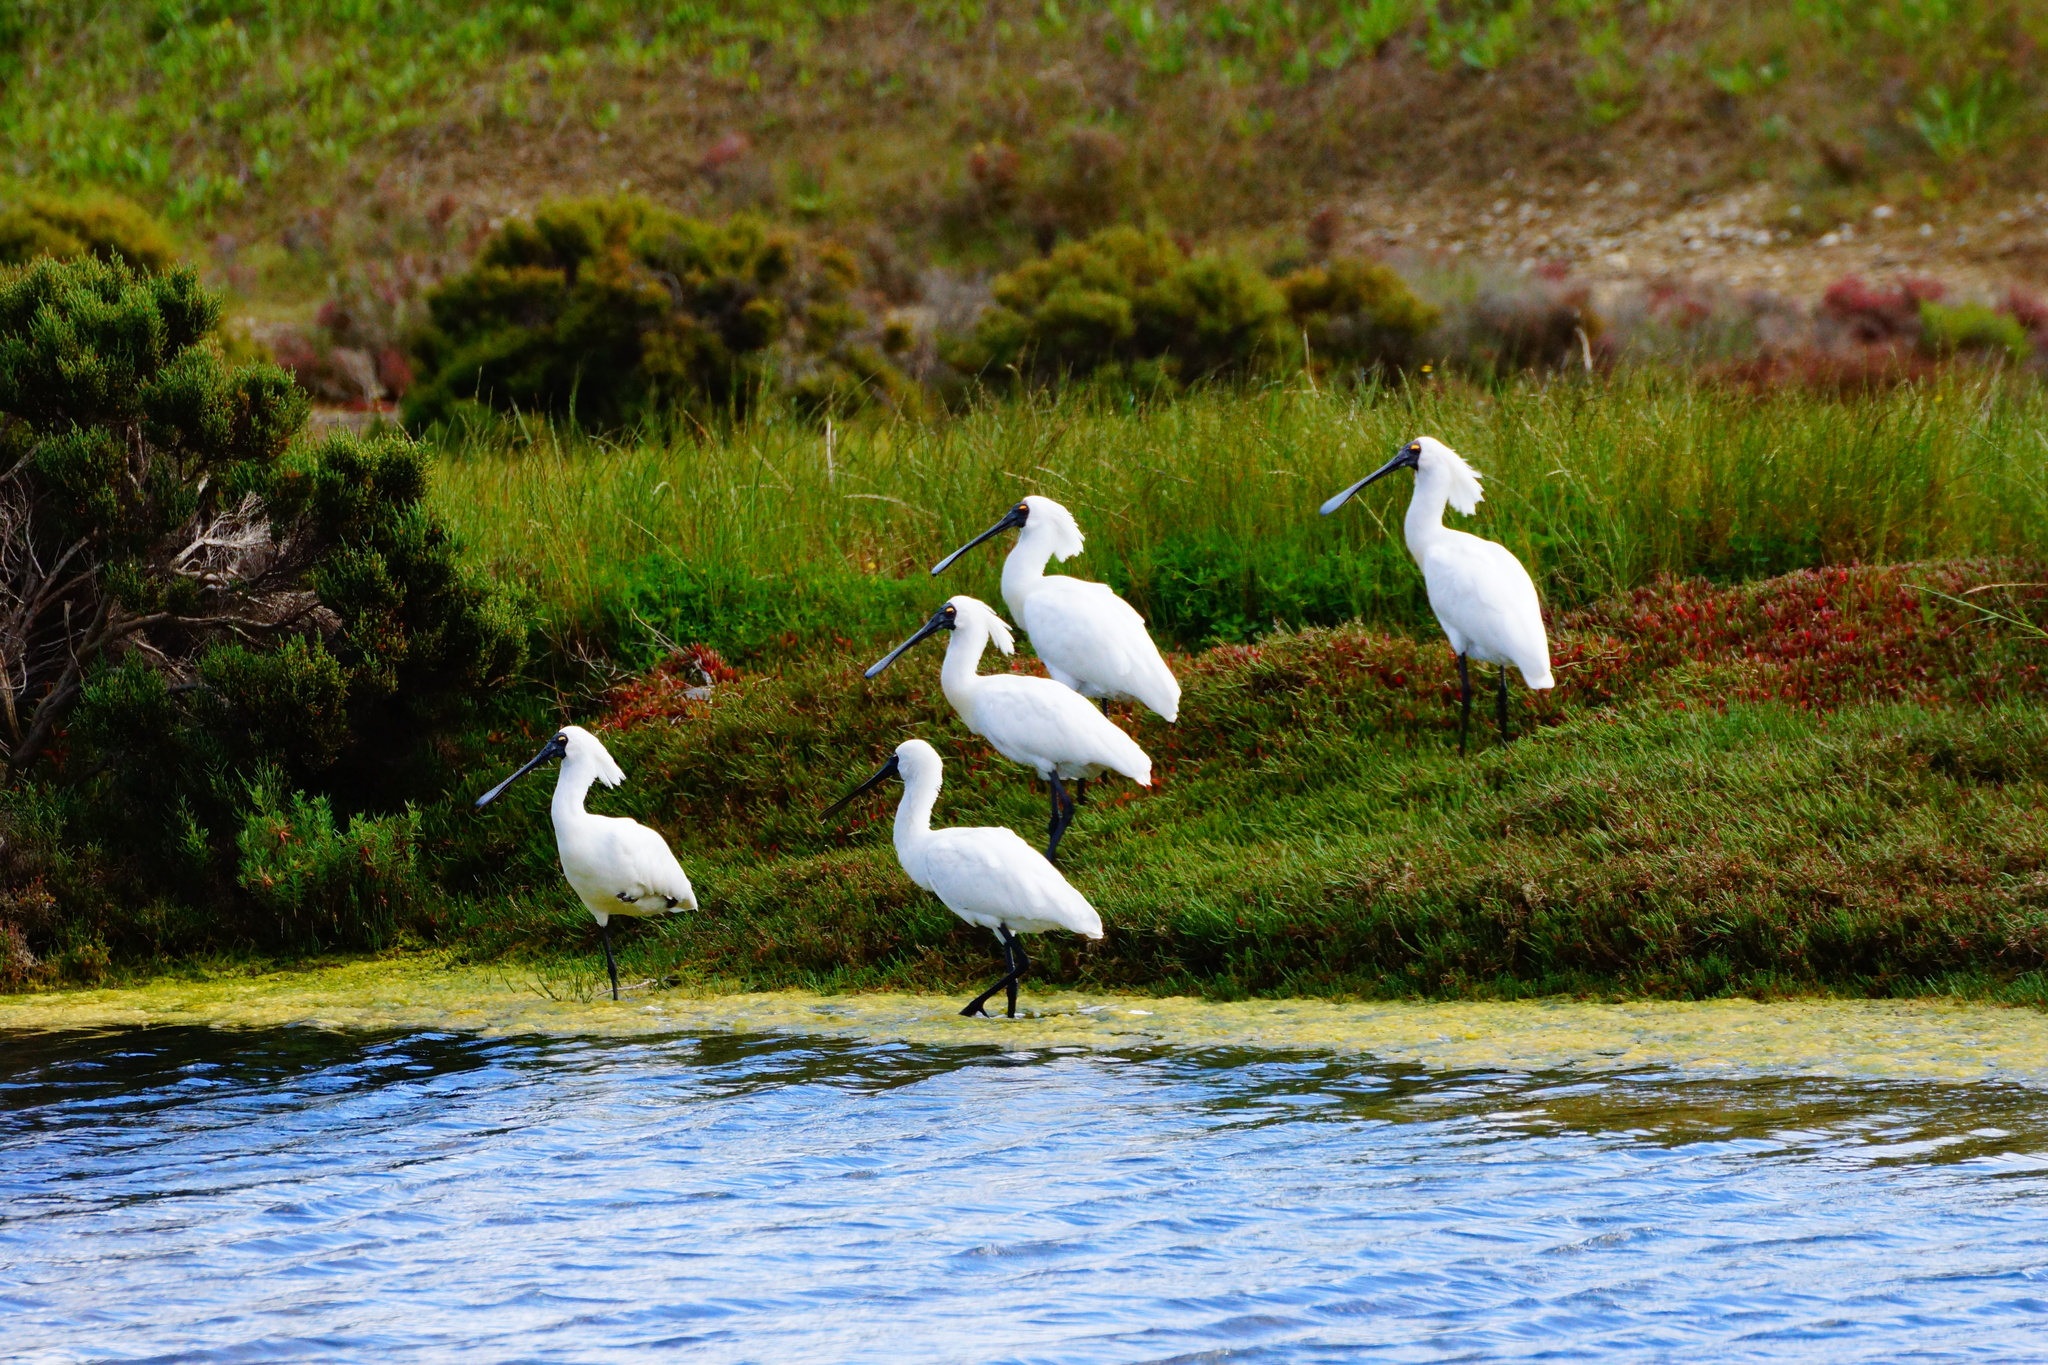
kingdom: Animalia
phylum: Chordata
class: Aves
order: Pelecaniformes
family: Threskiornithidae
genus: Platalea
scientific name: Platalea regia
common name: Royal spoonbill
